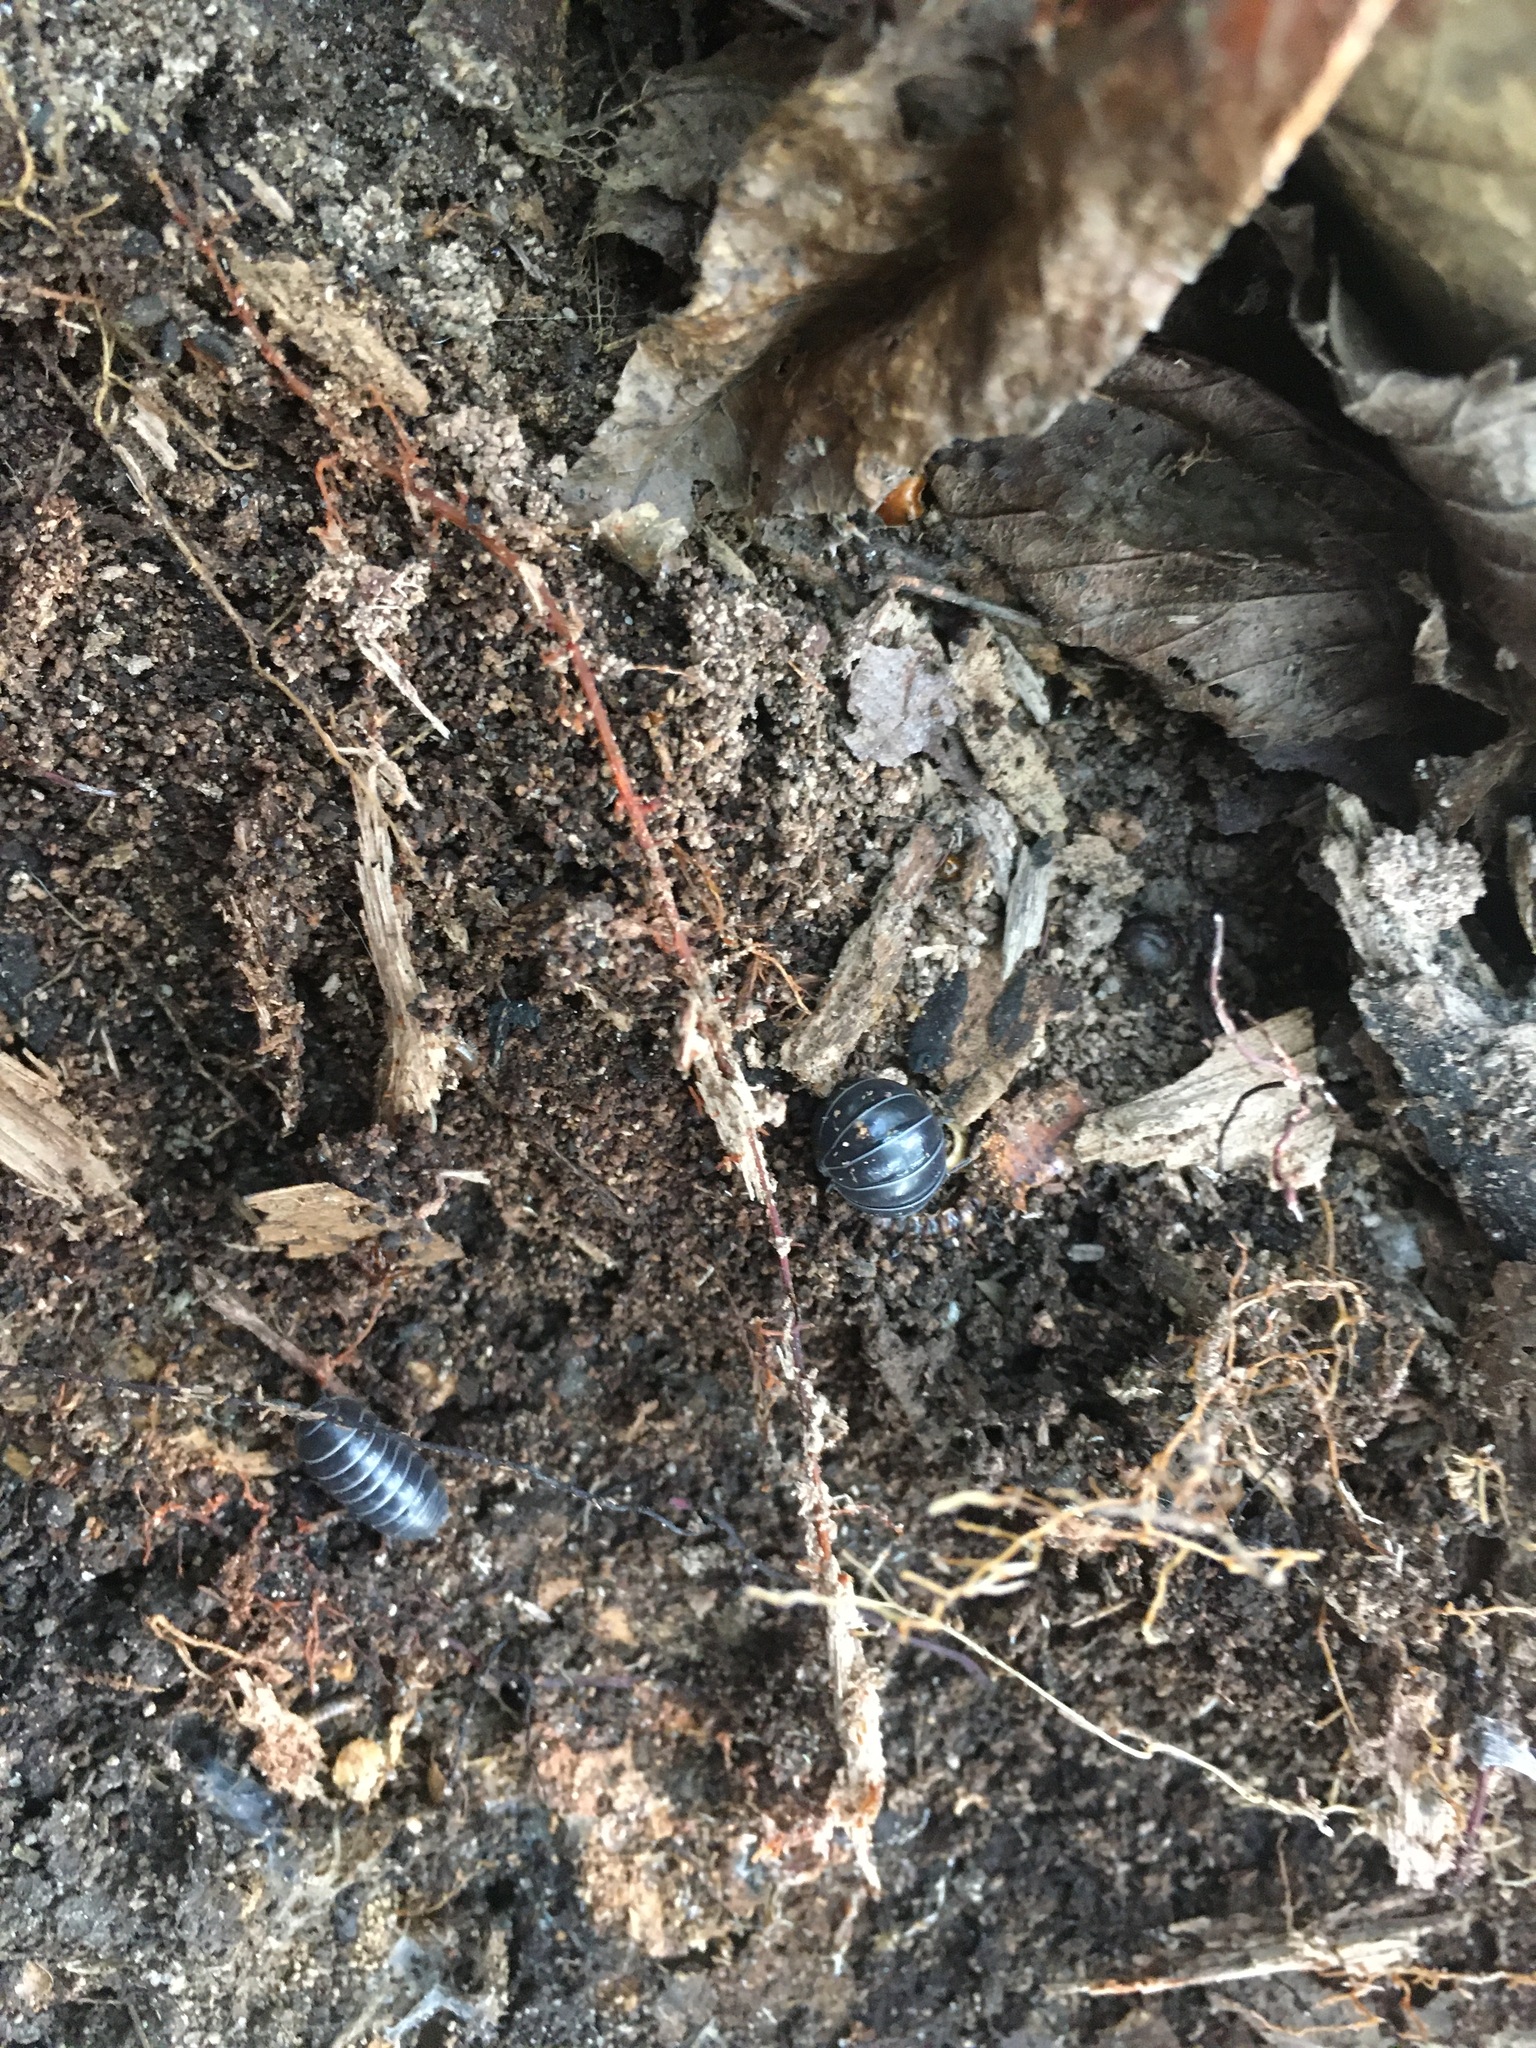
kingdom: Animalia
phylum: Arthropoda
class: Malacostraca
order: Isopoda
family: Armadillidiidae
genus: Armadillidium
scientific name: Armadillidium vulgare
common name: Common pill woodlouse
